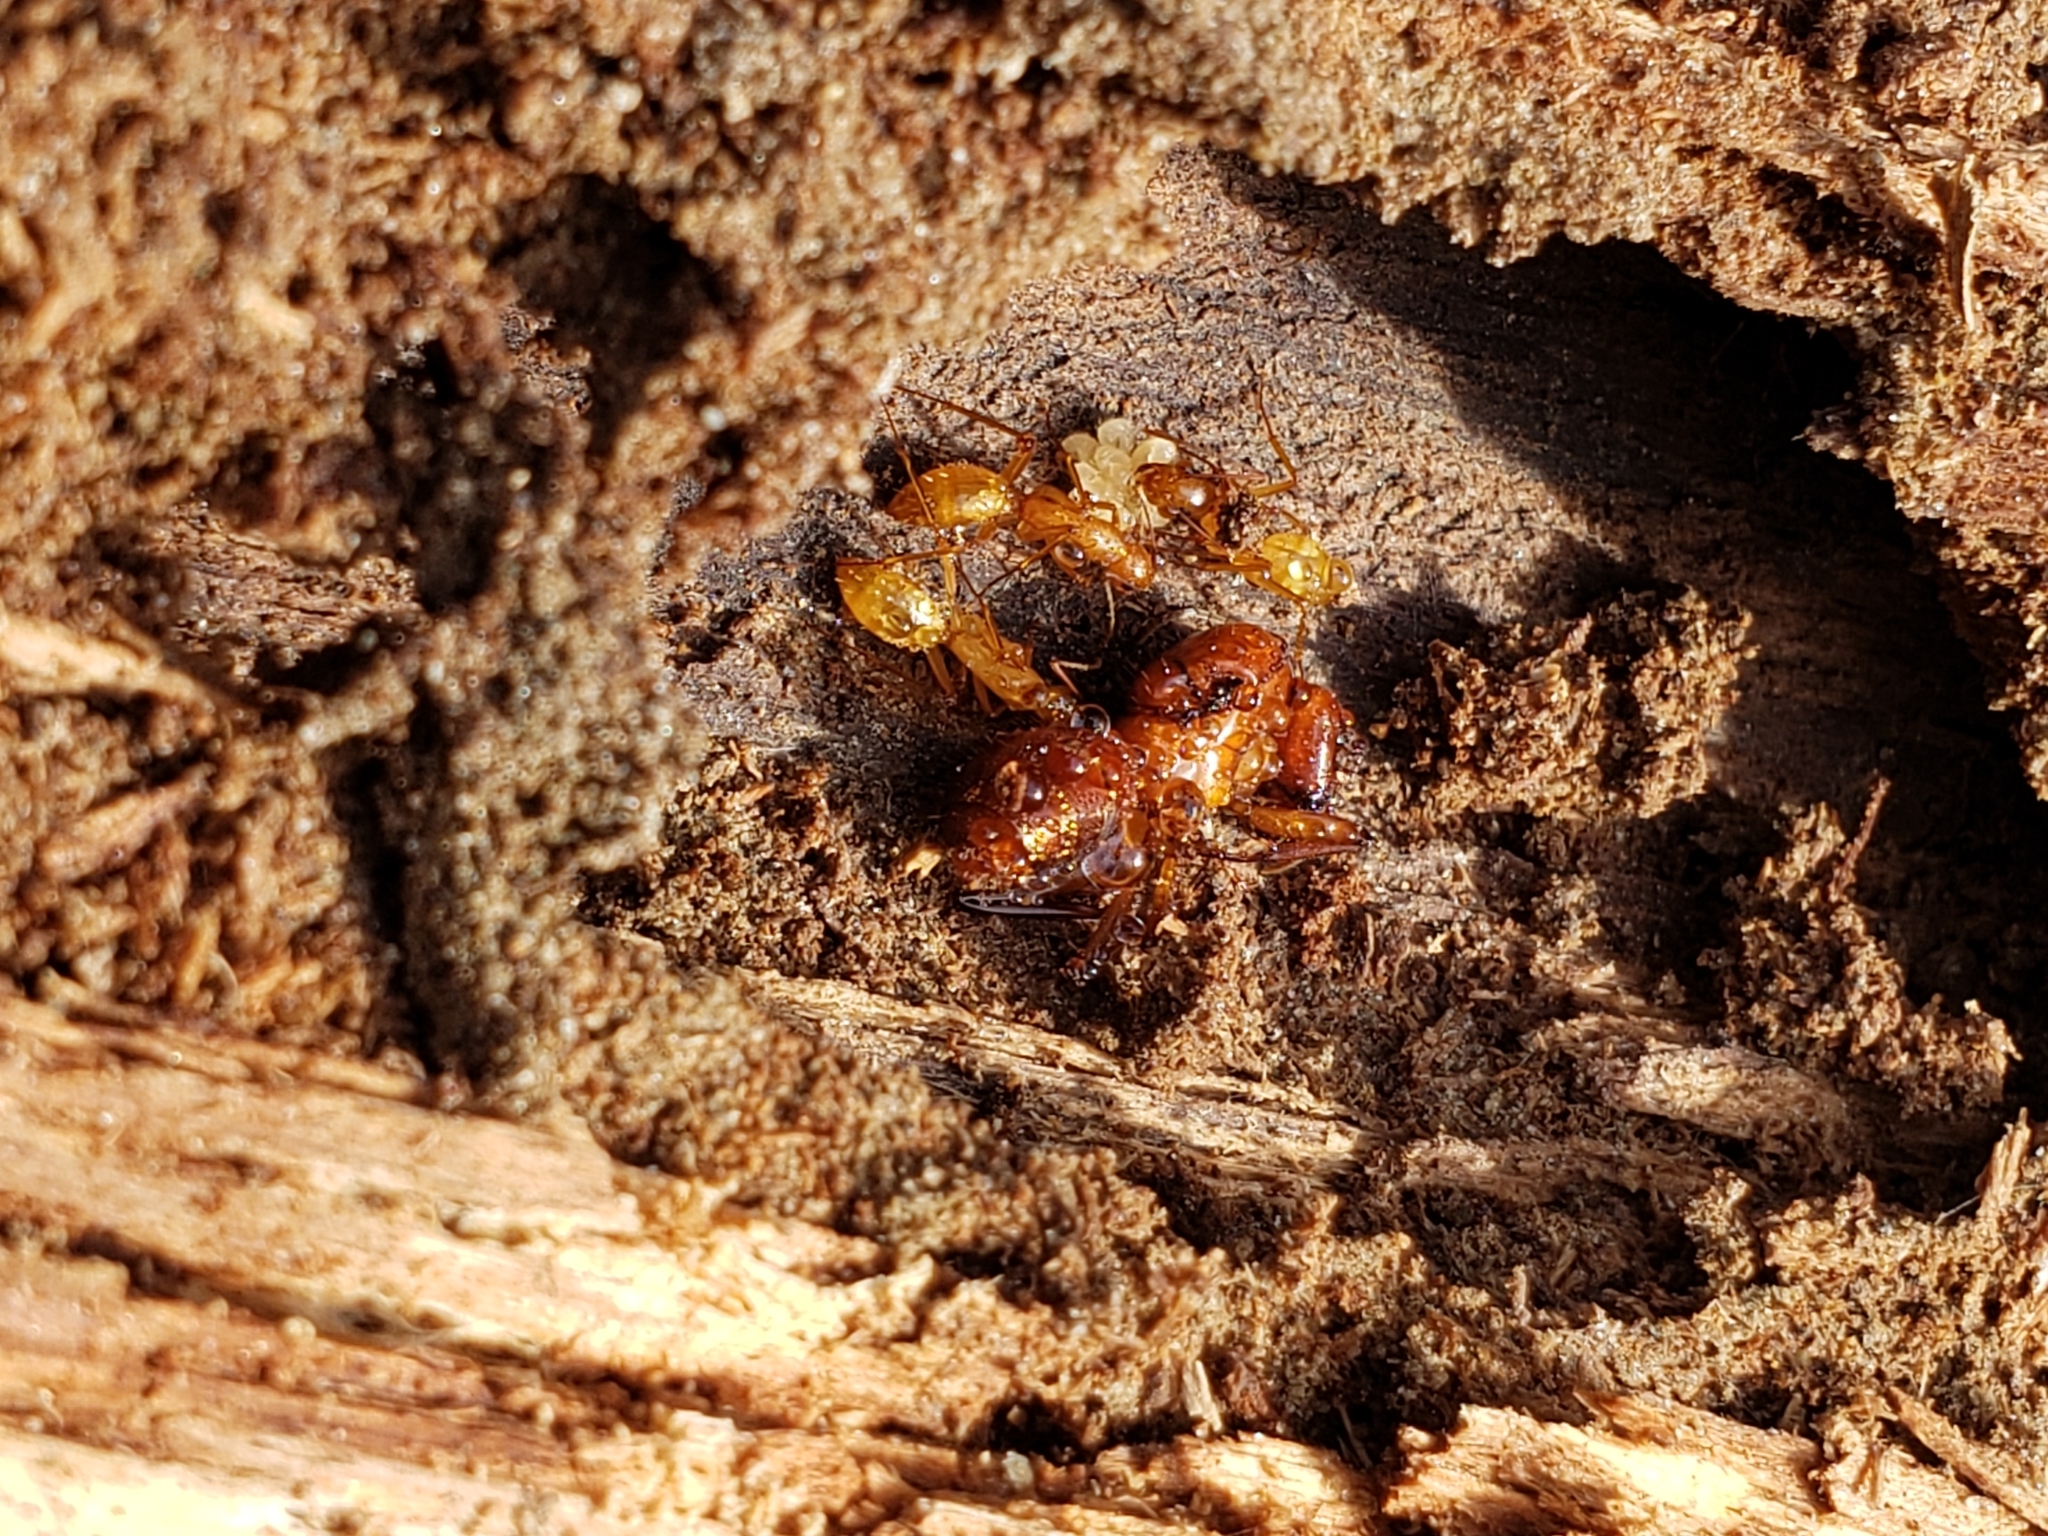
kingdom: Animalia
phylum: Arthropoda
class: Insecta
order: Hymenoptera
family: Formicidae
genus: Camponotus
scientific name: Camponotus castaneus
